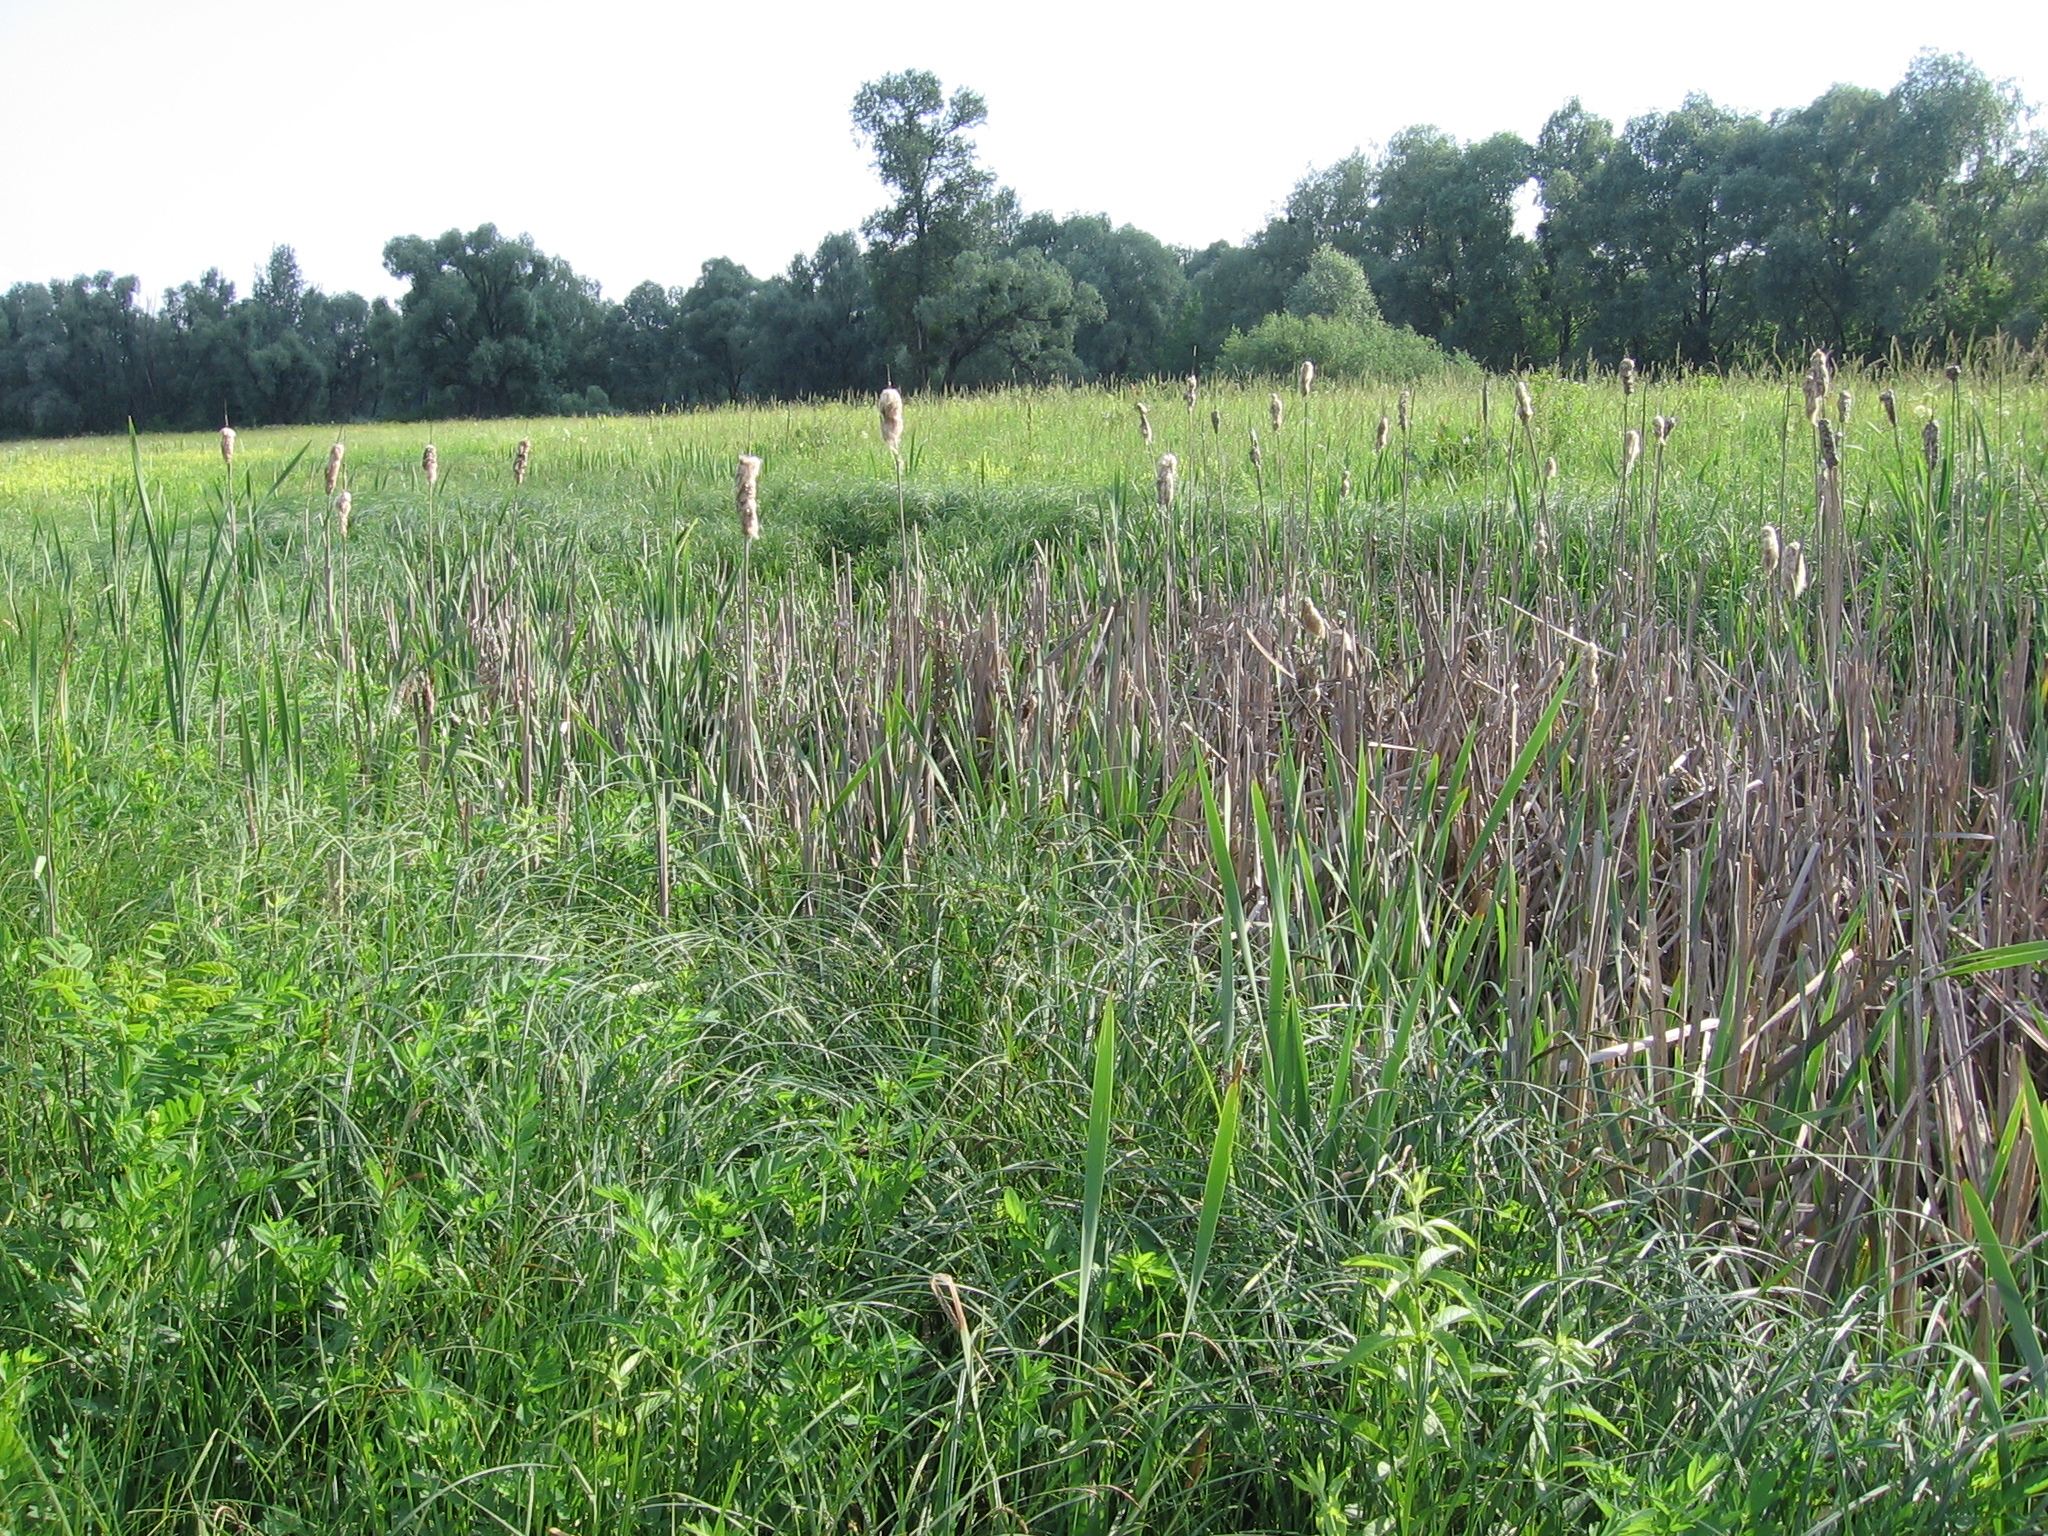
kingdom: Plantae
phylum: Tracheophyta
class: Liliopsida
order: Poales
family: Typhaceae
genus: Typha
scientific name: Typha latifolia
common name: Broadleaf cattail
